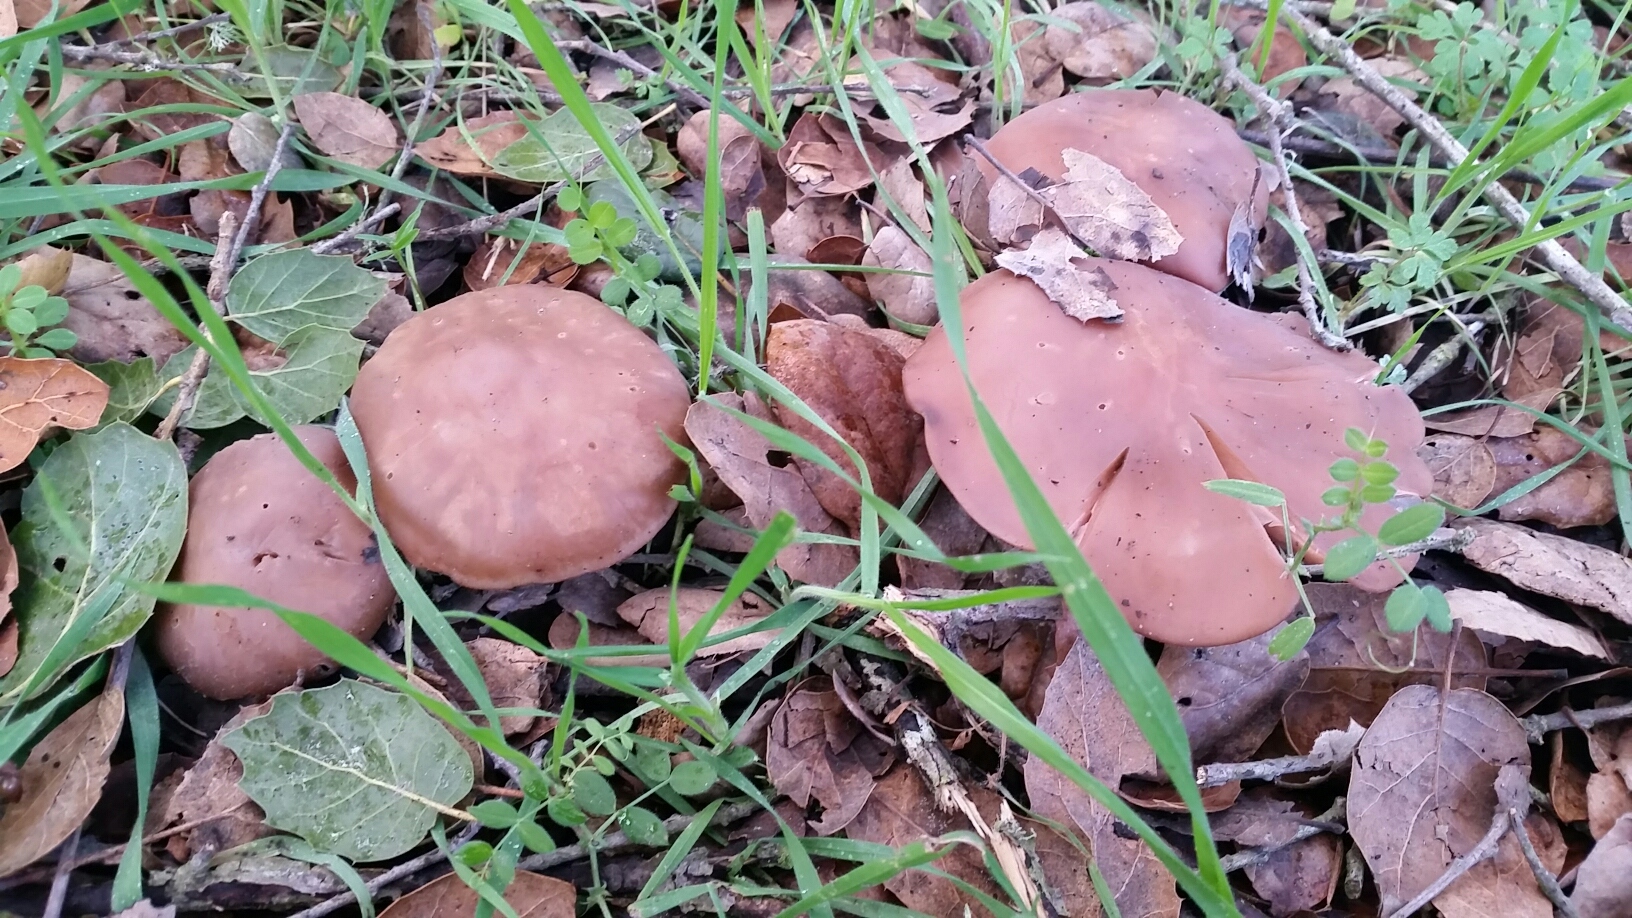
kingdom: Fungi
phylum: Basidiomycota
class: Agaricomycetes
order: Agaricales
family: Tricholomataceae
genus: Collybia
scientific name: Collybia
